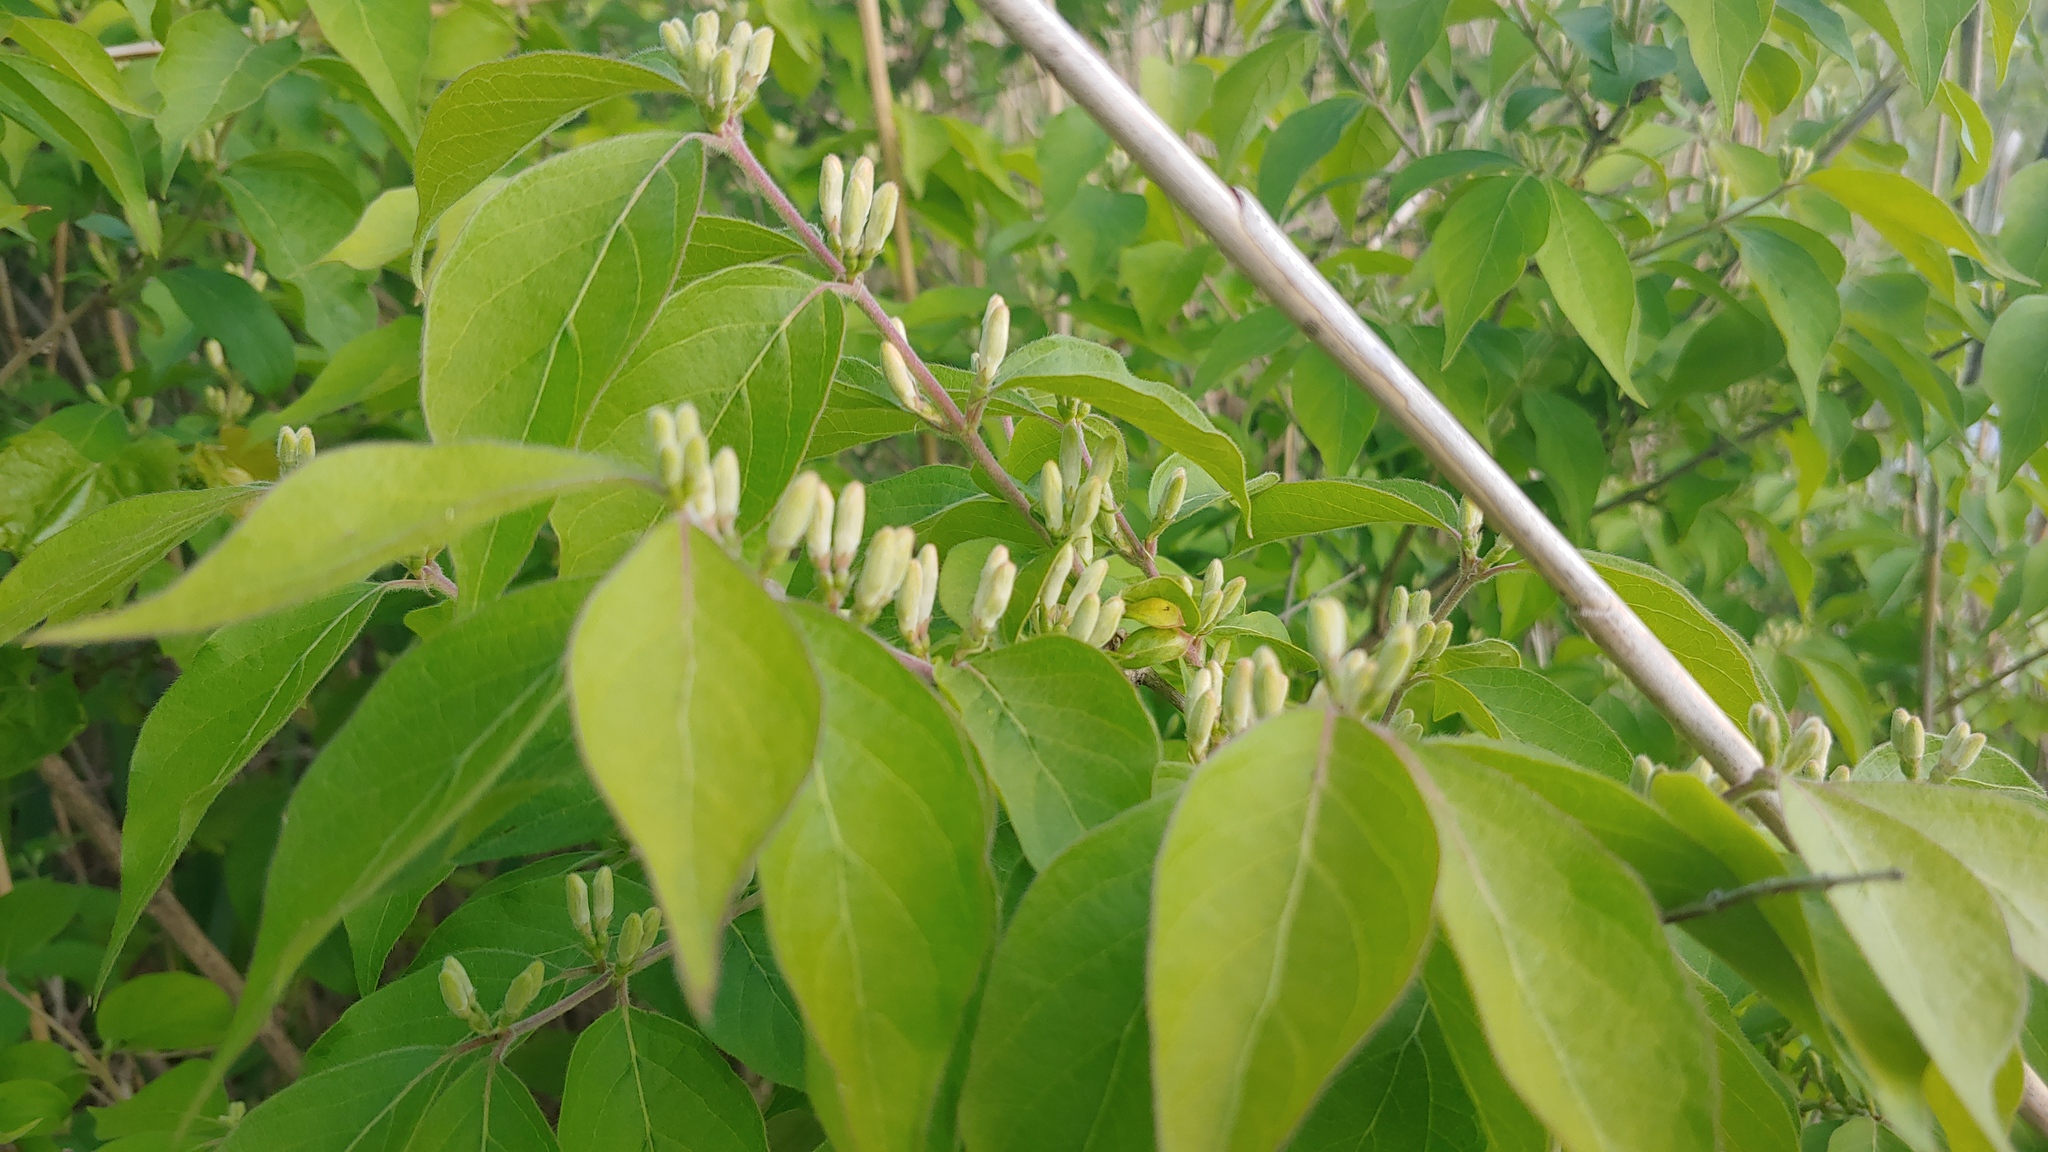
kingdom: Plantae
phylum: Tracheophyta
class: Magnoliopsida
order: Dipsacales
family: Caprifoliaceae
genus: Lonicera
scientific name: Lonicera maackii
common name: Amur honeysuckle
